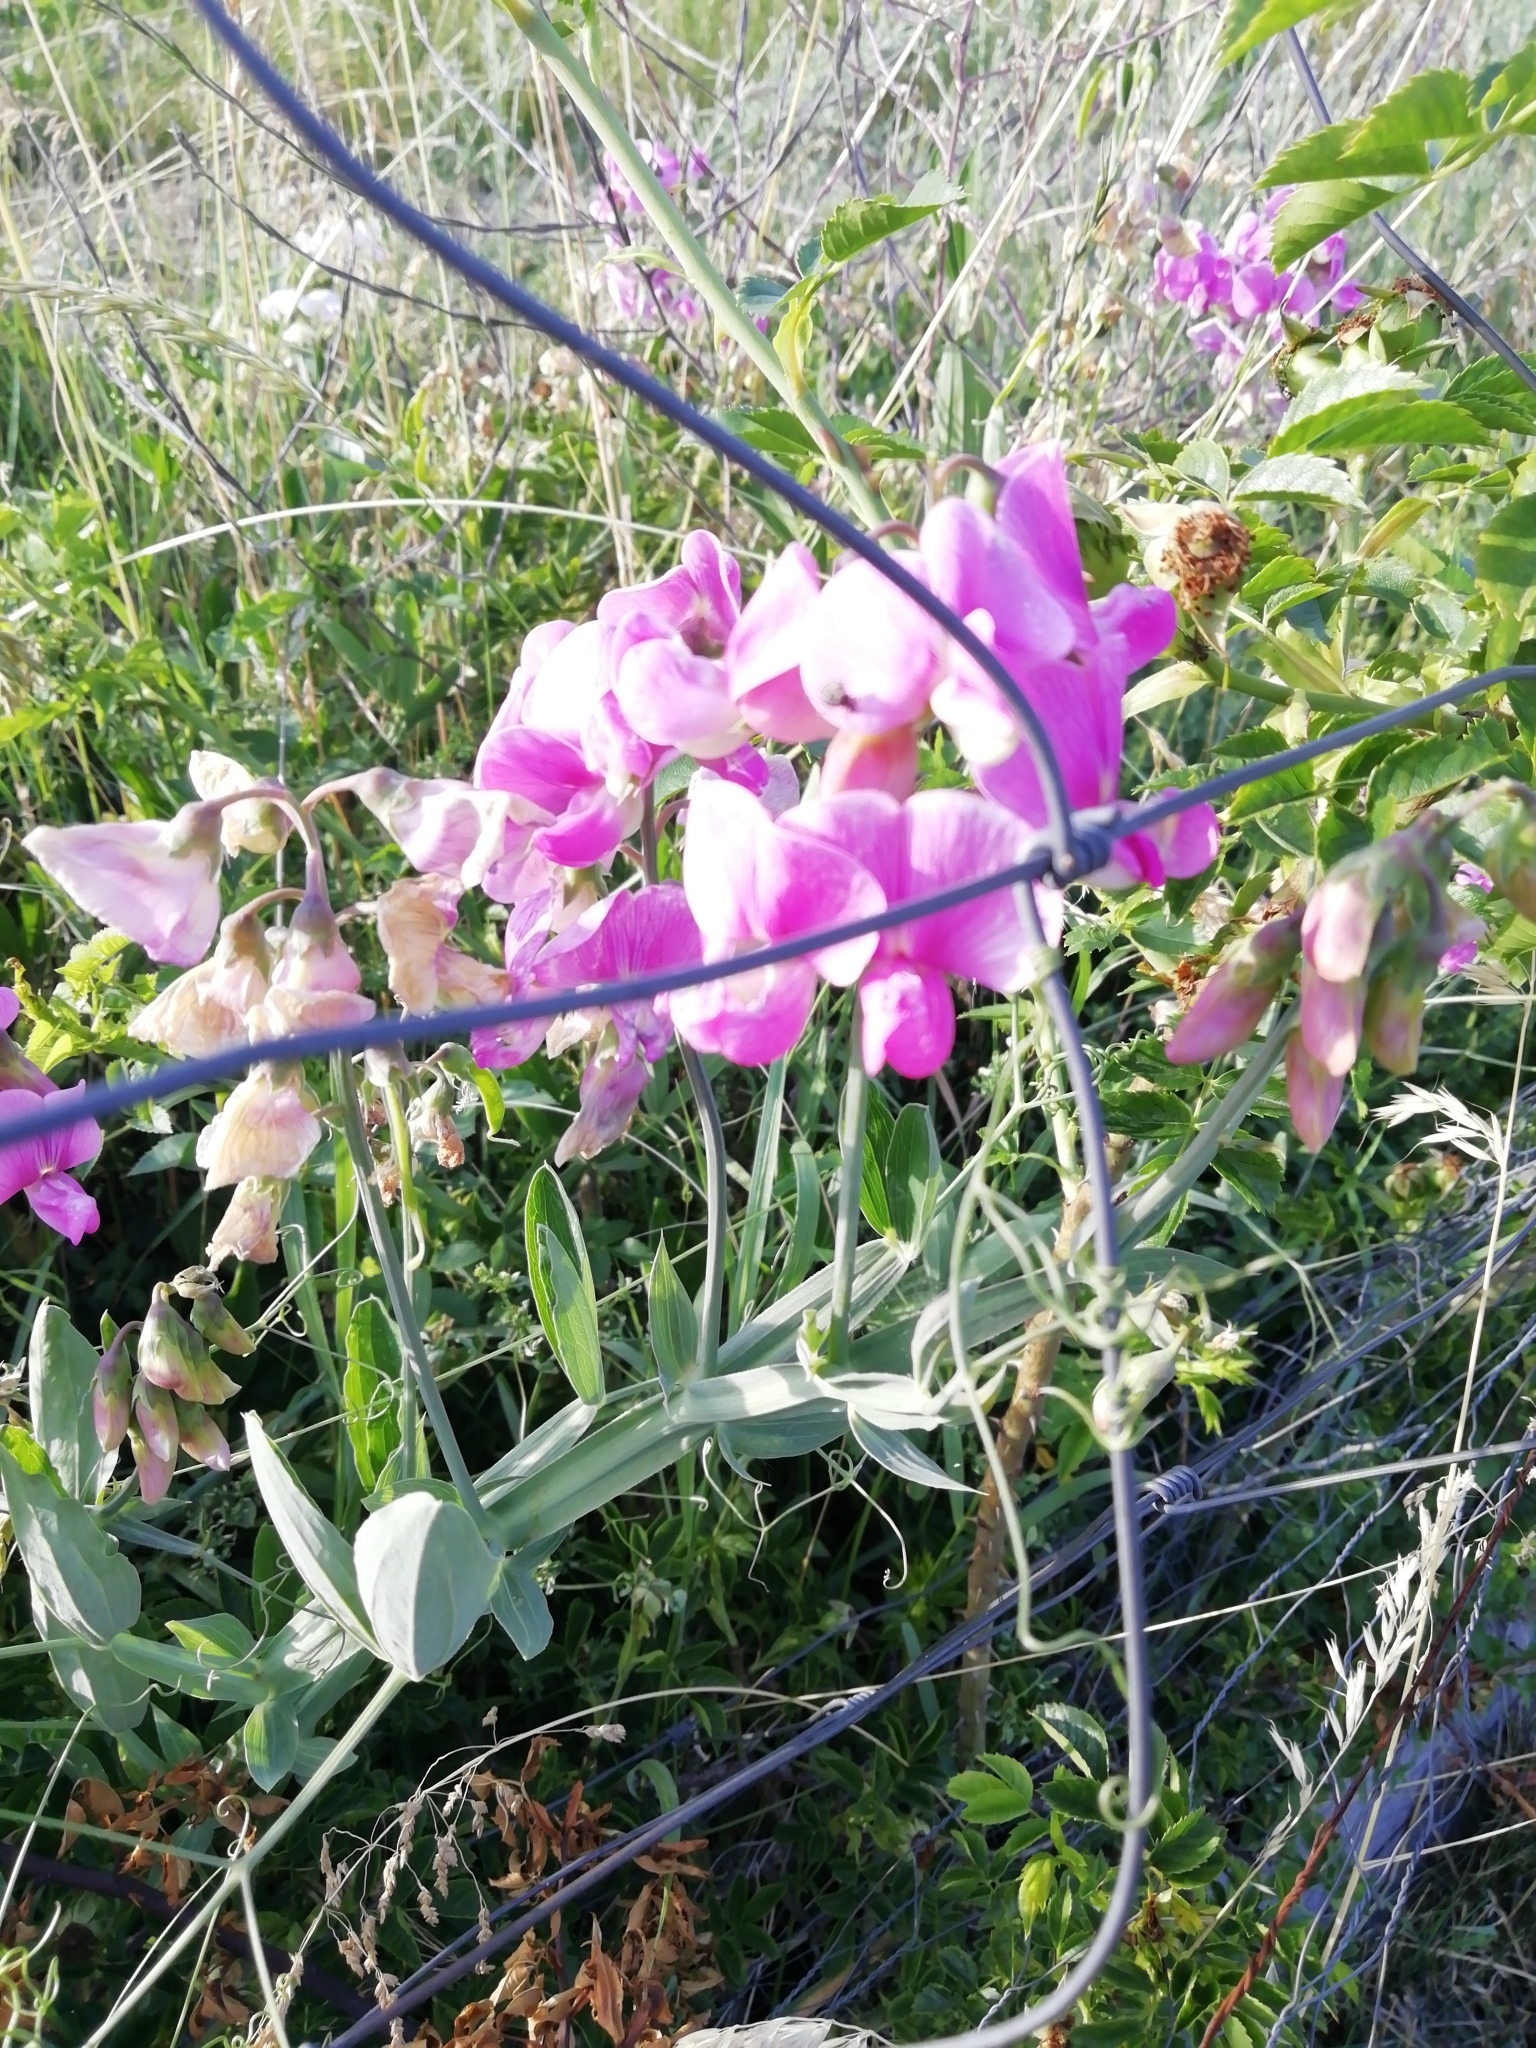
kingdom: Plantae
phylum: Tracheophyta
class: Magnoliopsida
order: Fabales
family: Fabaceae
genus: Lathyrus
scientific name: Lathyrus latifolius
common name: Perennial pea
